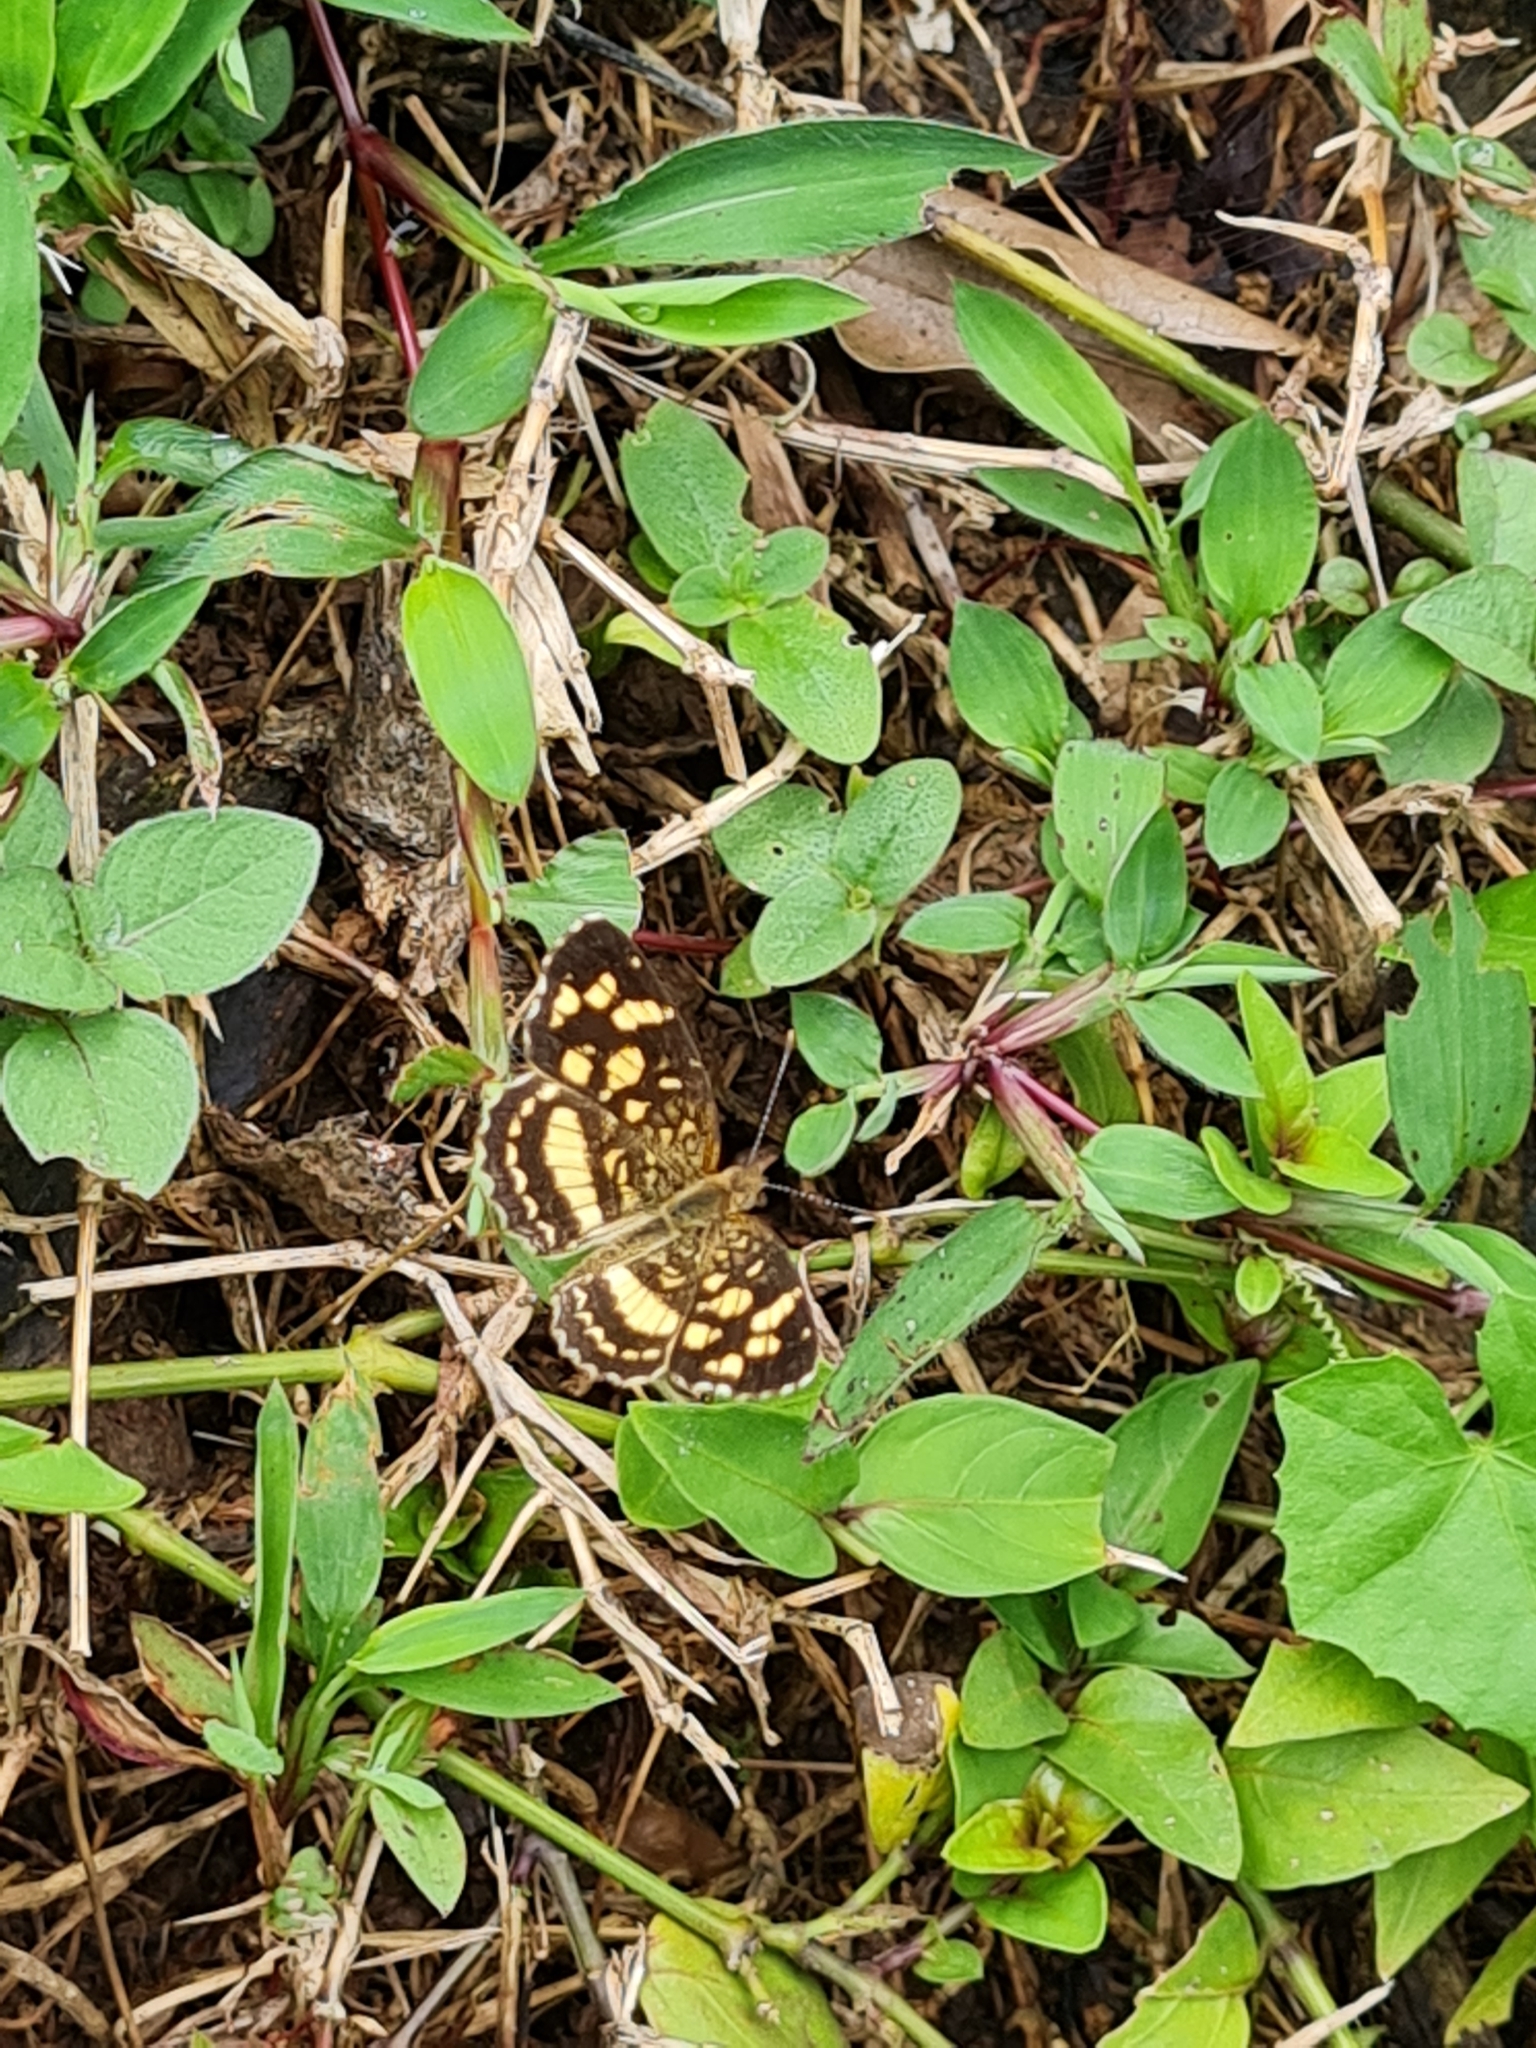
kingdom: Animalia
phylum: Arthropoda
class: Insecta
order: Lepidoptera
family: Nymphalidae
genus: Anthanassa
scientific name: Anthanassa tulcis
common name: Pale-banded crescent
